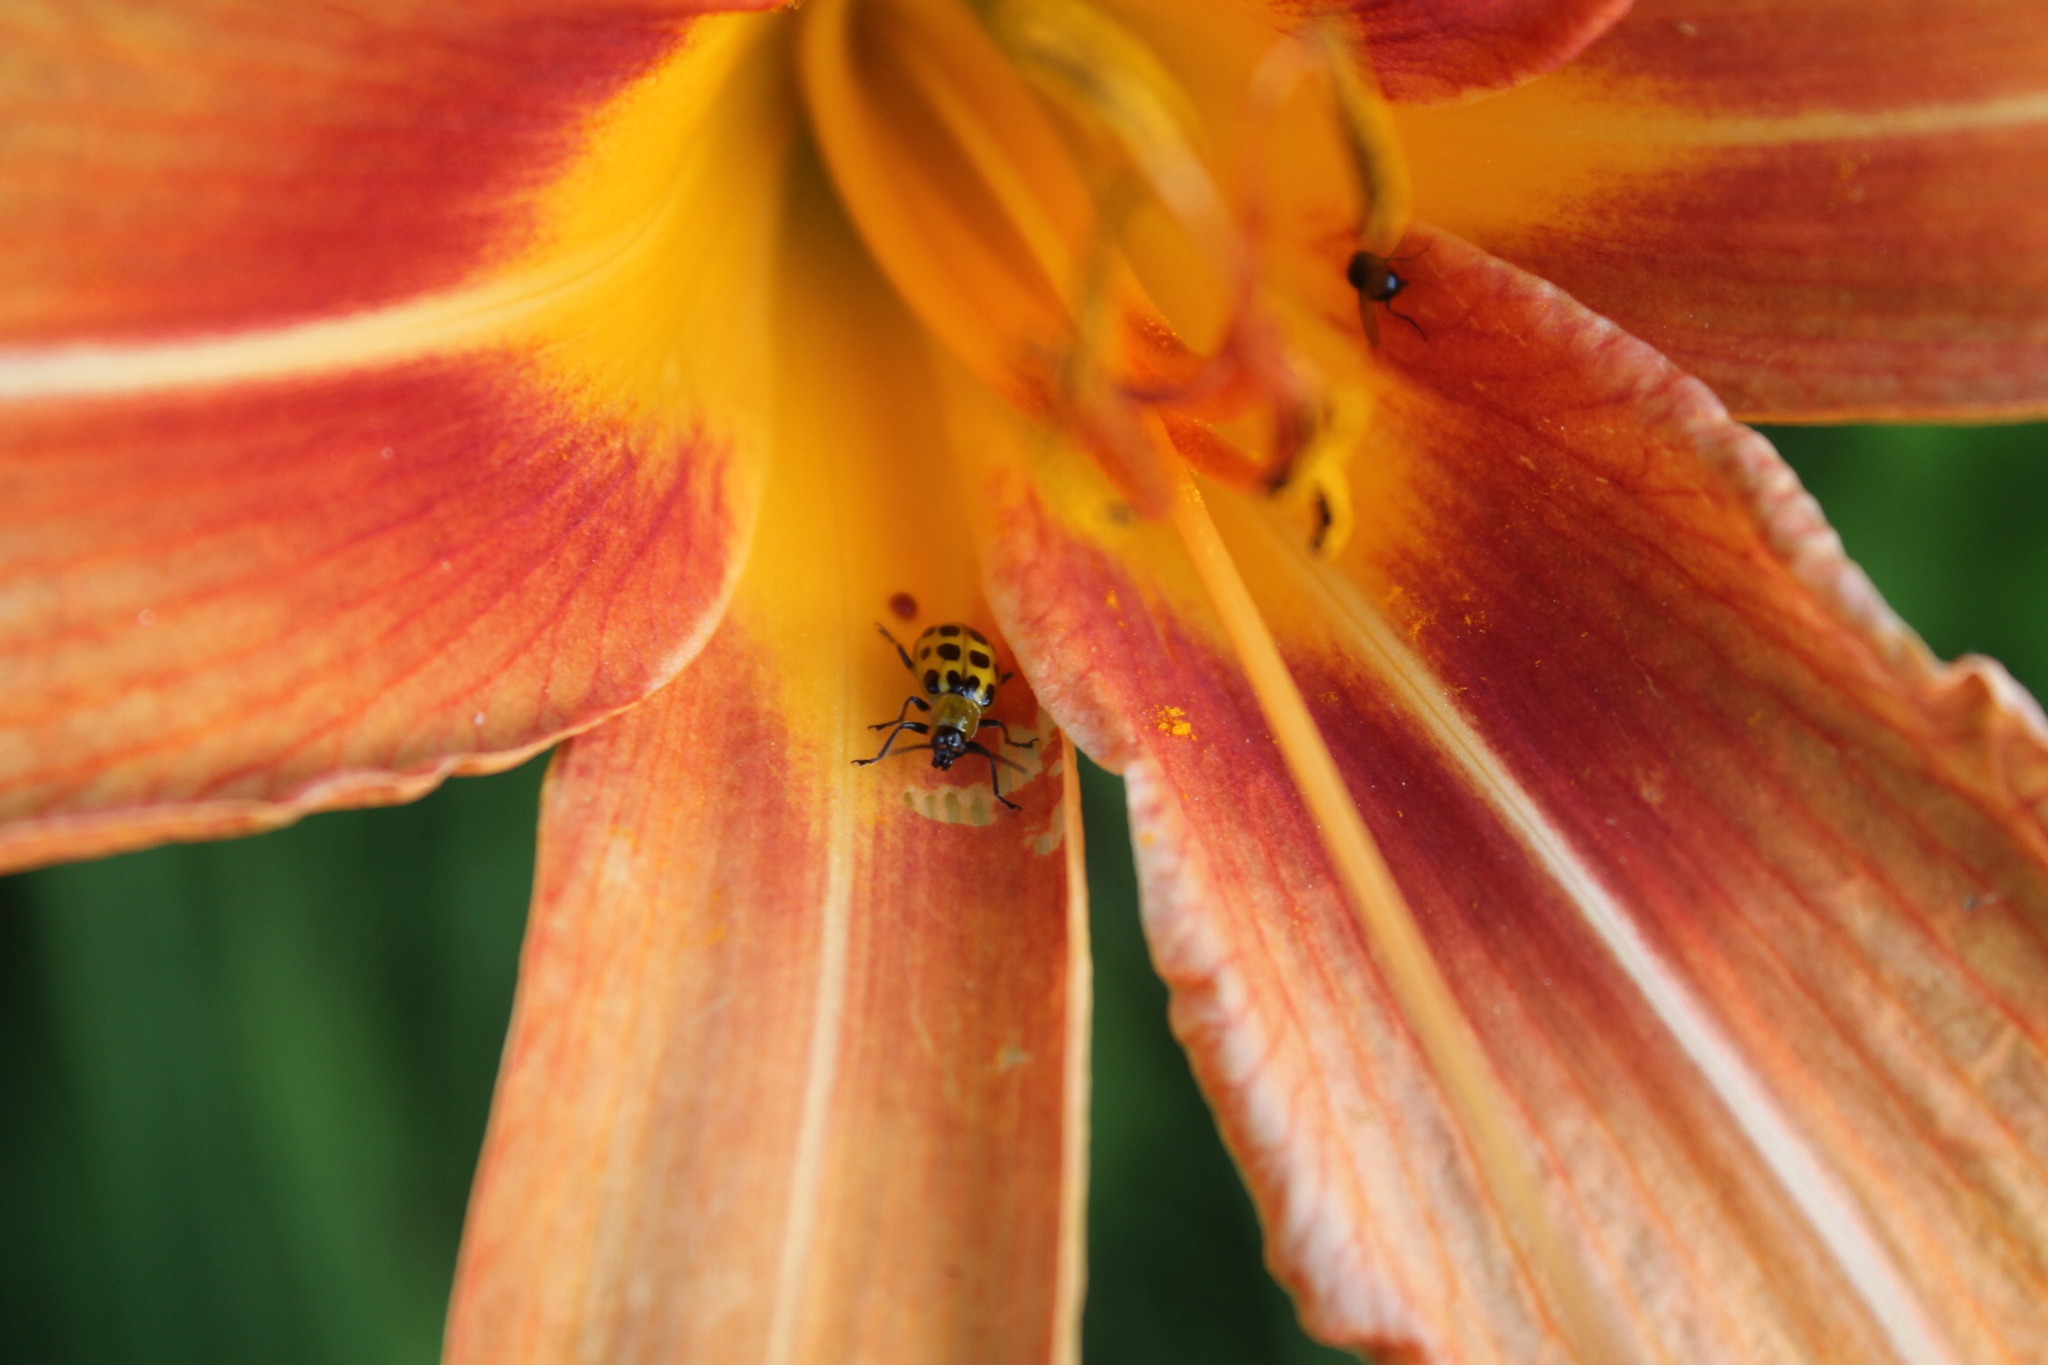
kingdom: Animalia
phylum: Arthropoda
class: Insecta
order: Coleoptera
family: Chrysomelidae
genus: Diabrotica
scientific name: Diabrotica undecimpunctata
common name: Spotted cucumber beetle
